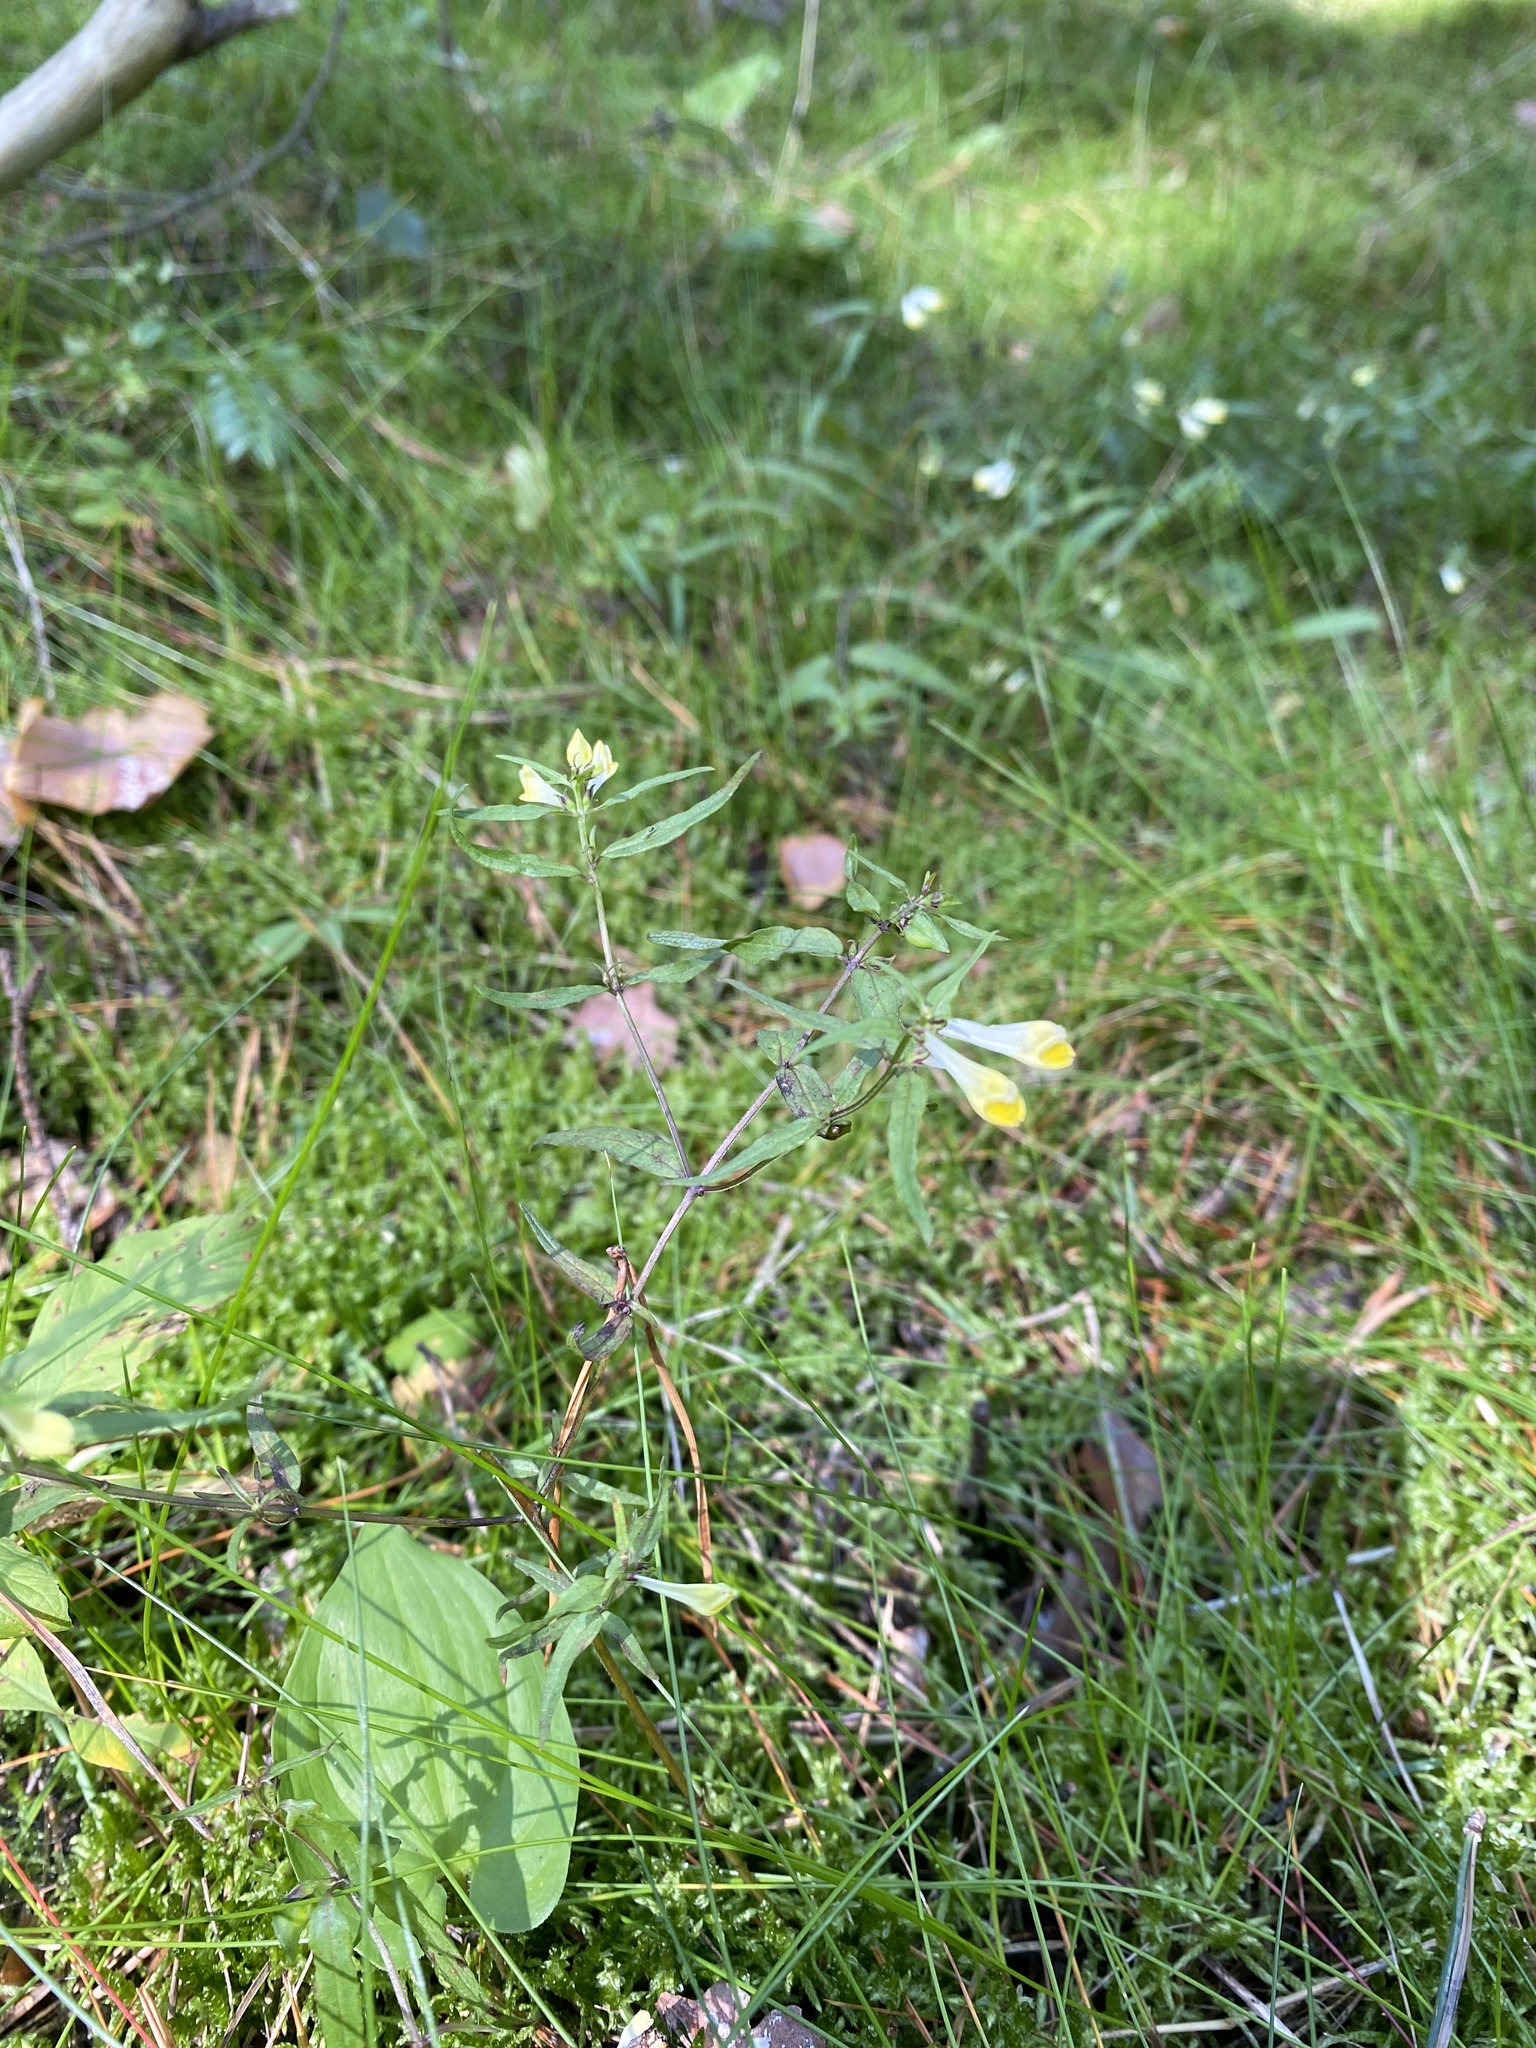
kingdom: Plantae
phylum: Tracheophyta
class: Magnoliopsida
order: Lamiales
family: Orobanchaceae
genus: Melampyrum
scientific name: Melampyrum pratense
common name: Common cow-wheat
